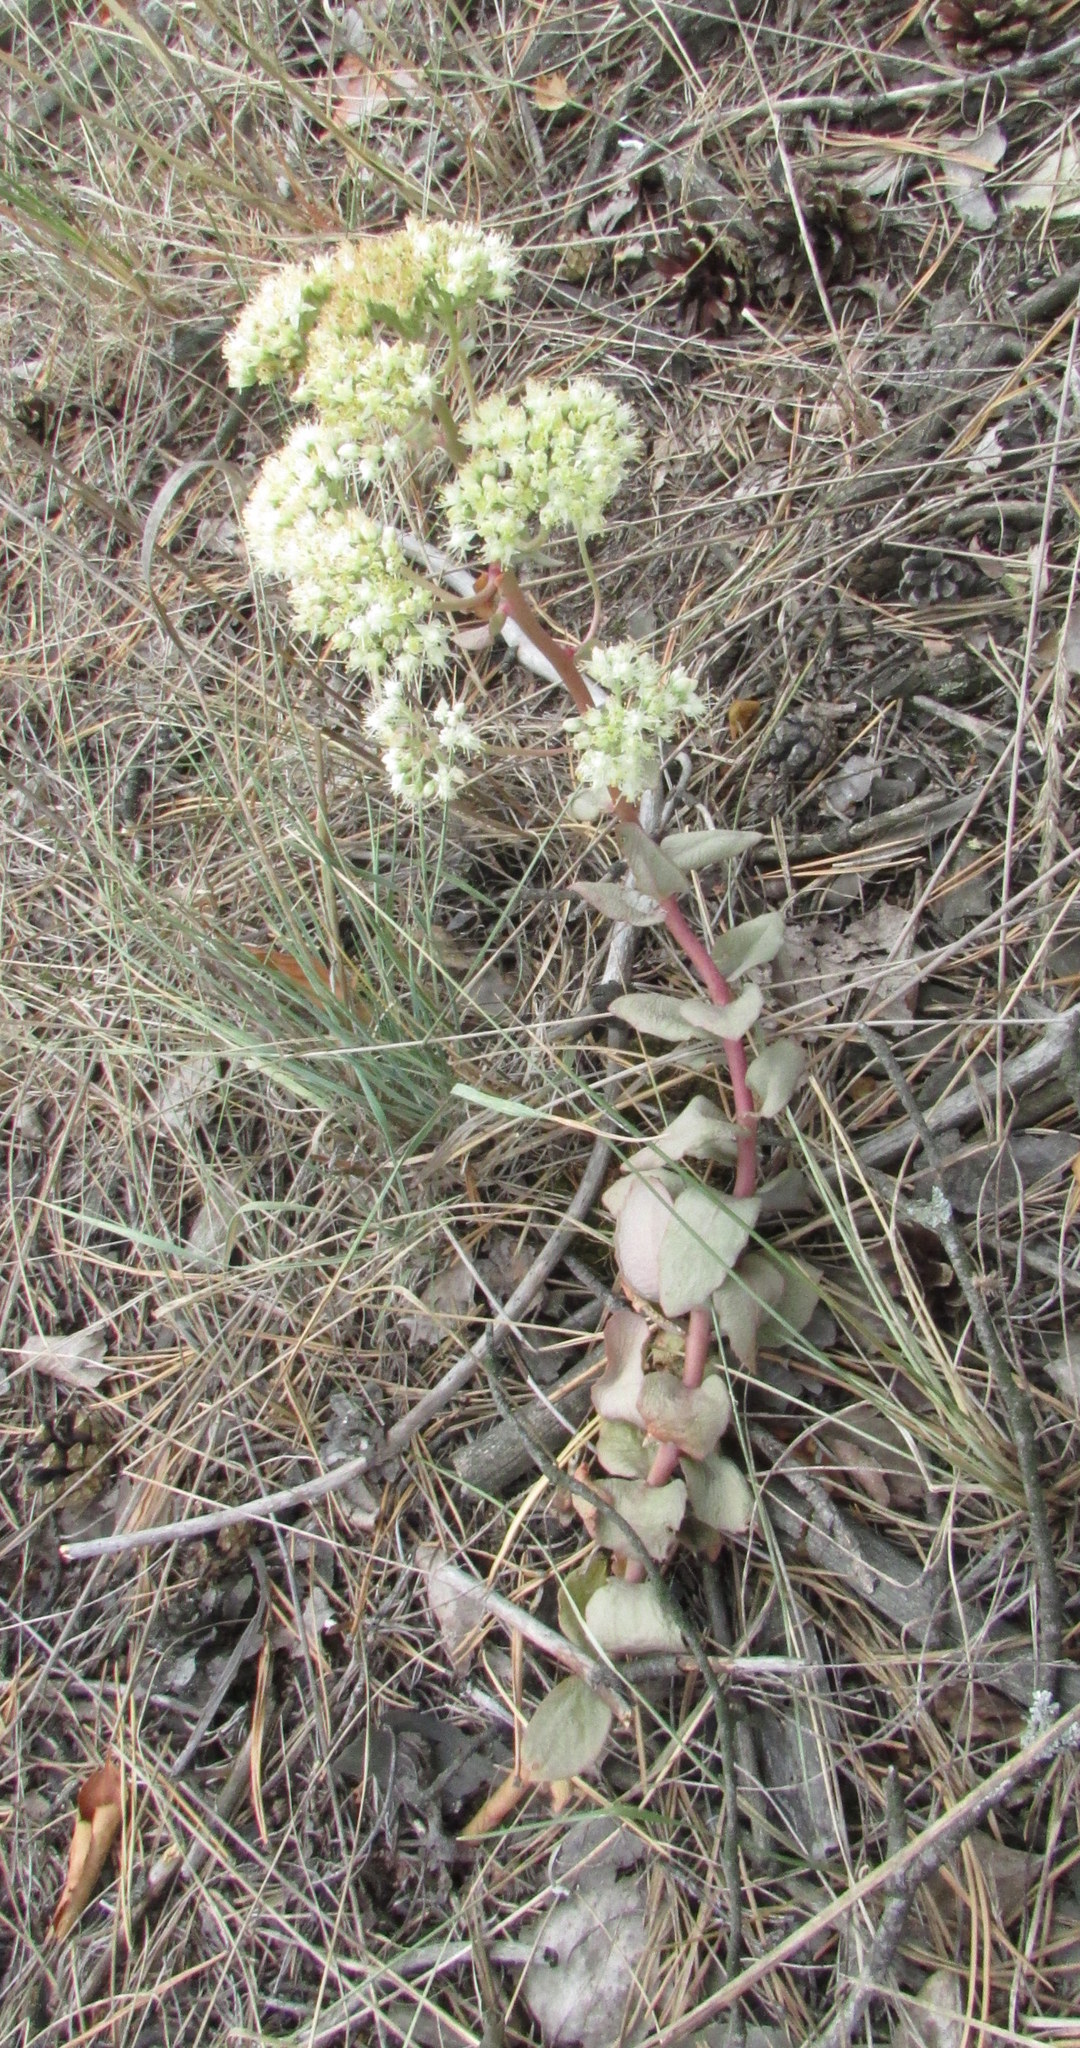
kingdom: Plantae
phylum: Tracheophyta
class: Magnoliopsida
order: Saxifragales
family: Crassulaceae
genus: Hylotelephium
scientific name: Hylotelephium maximum
